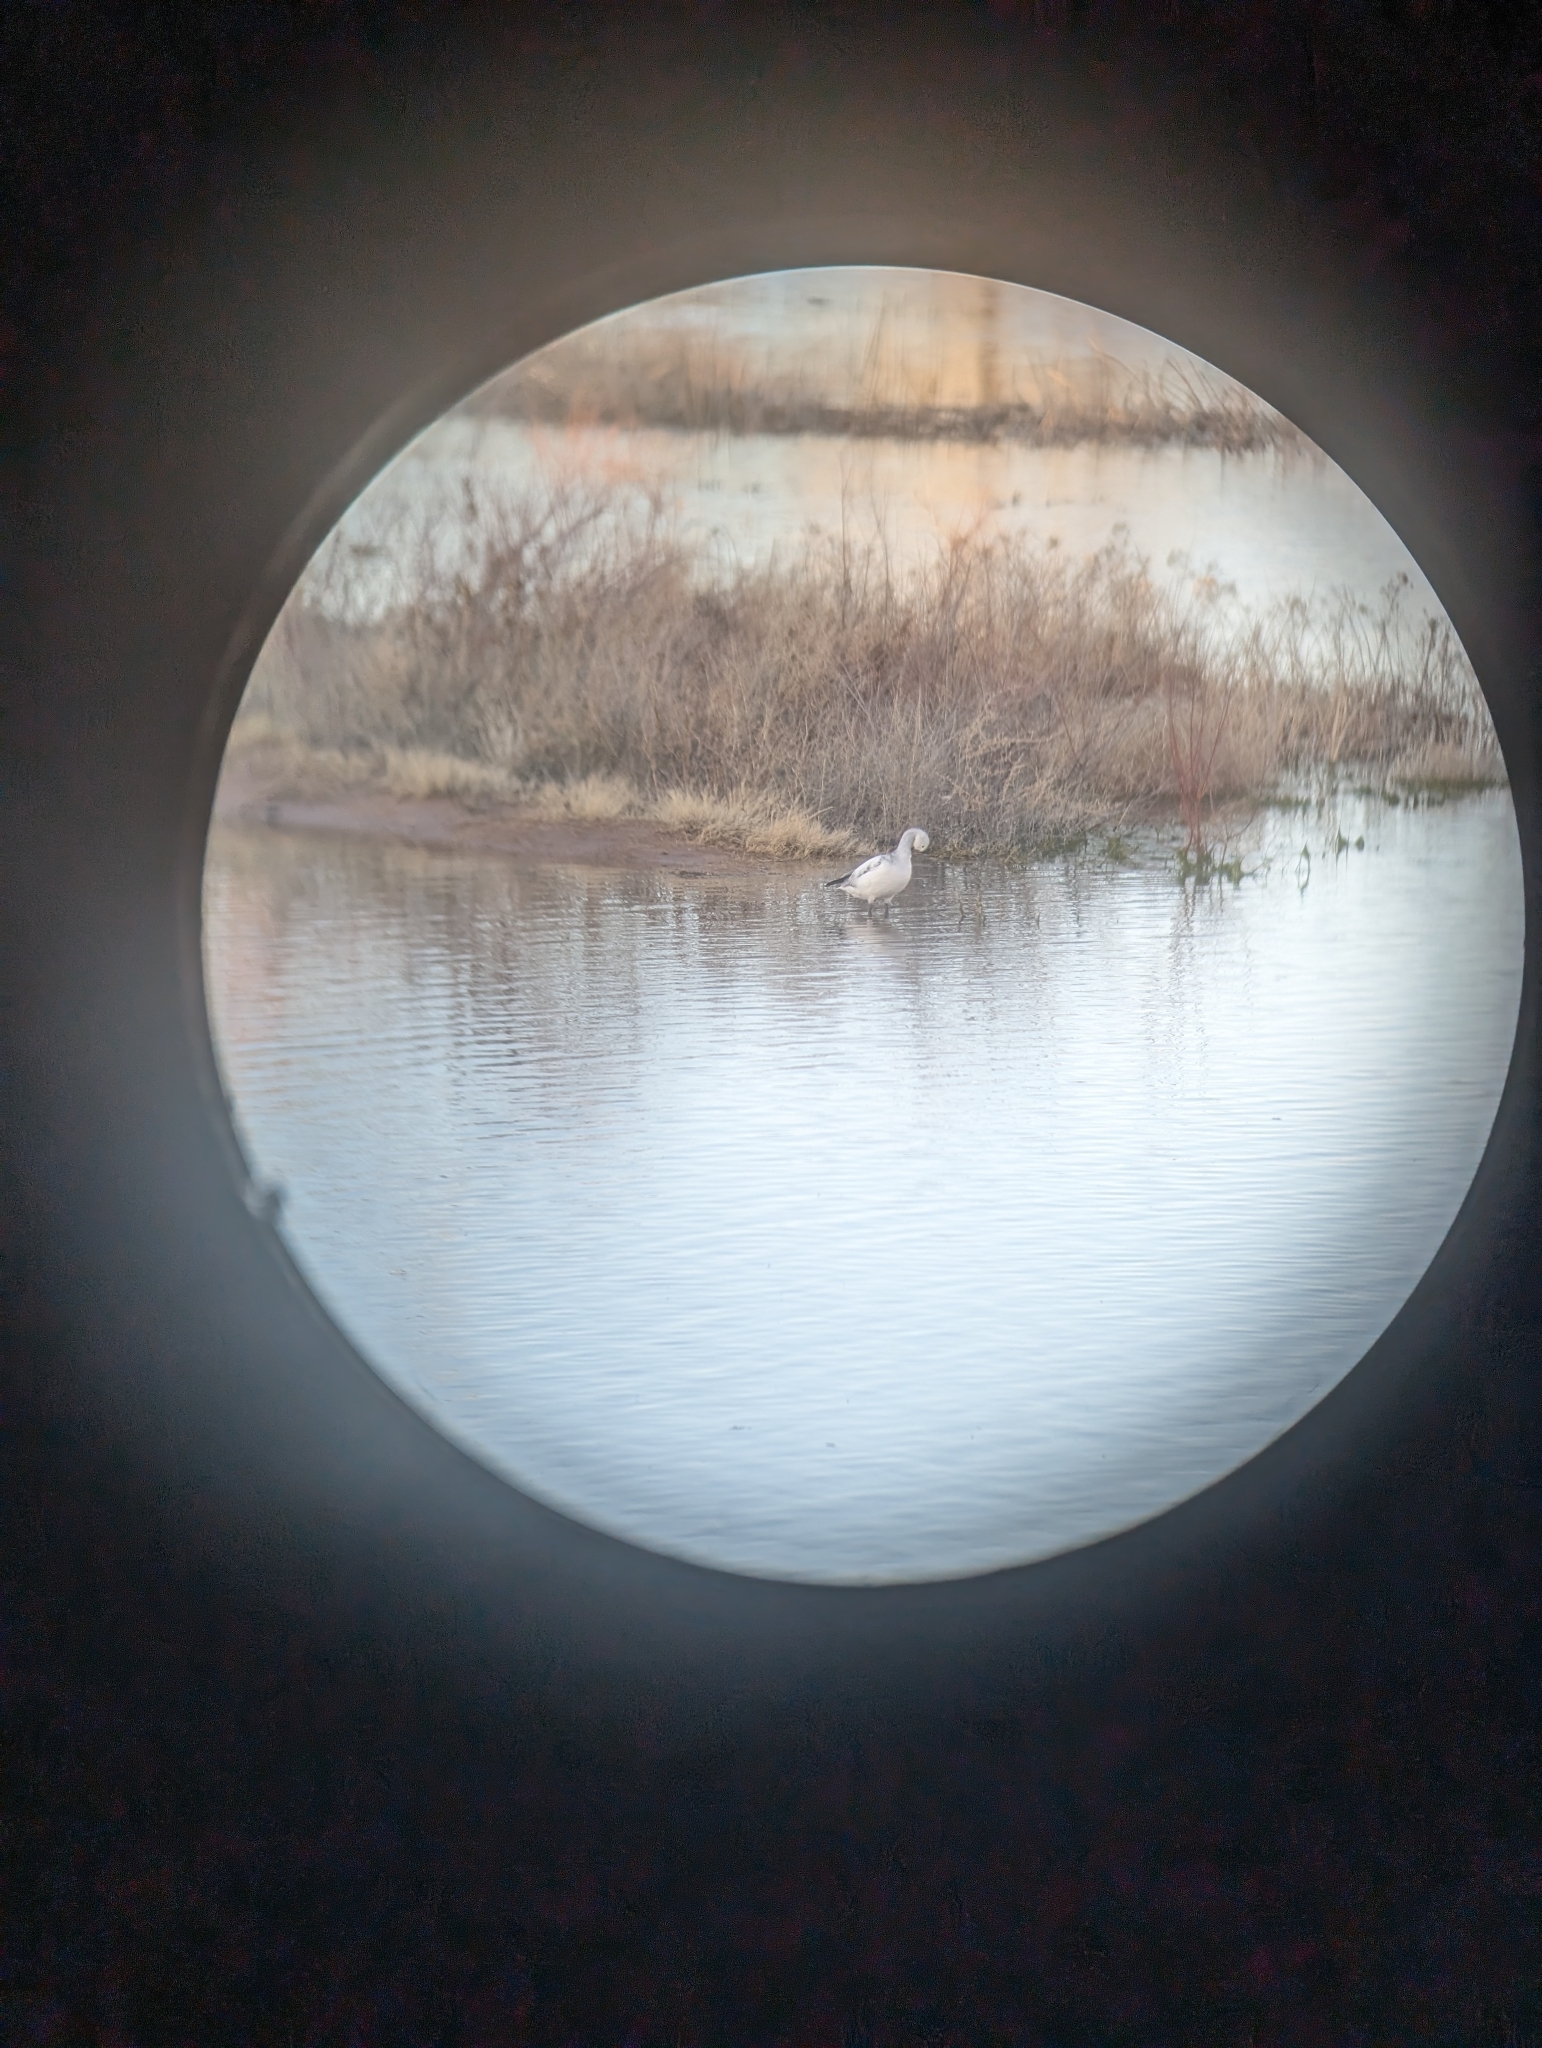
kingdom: Animalia
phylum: Chordata
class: Aves
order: Anseriformes
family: Anatidae
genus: Anser
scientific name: Anser caerulescens
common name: Snow goose
